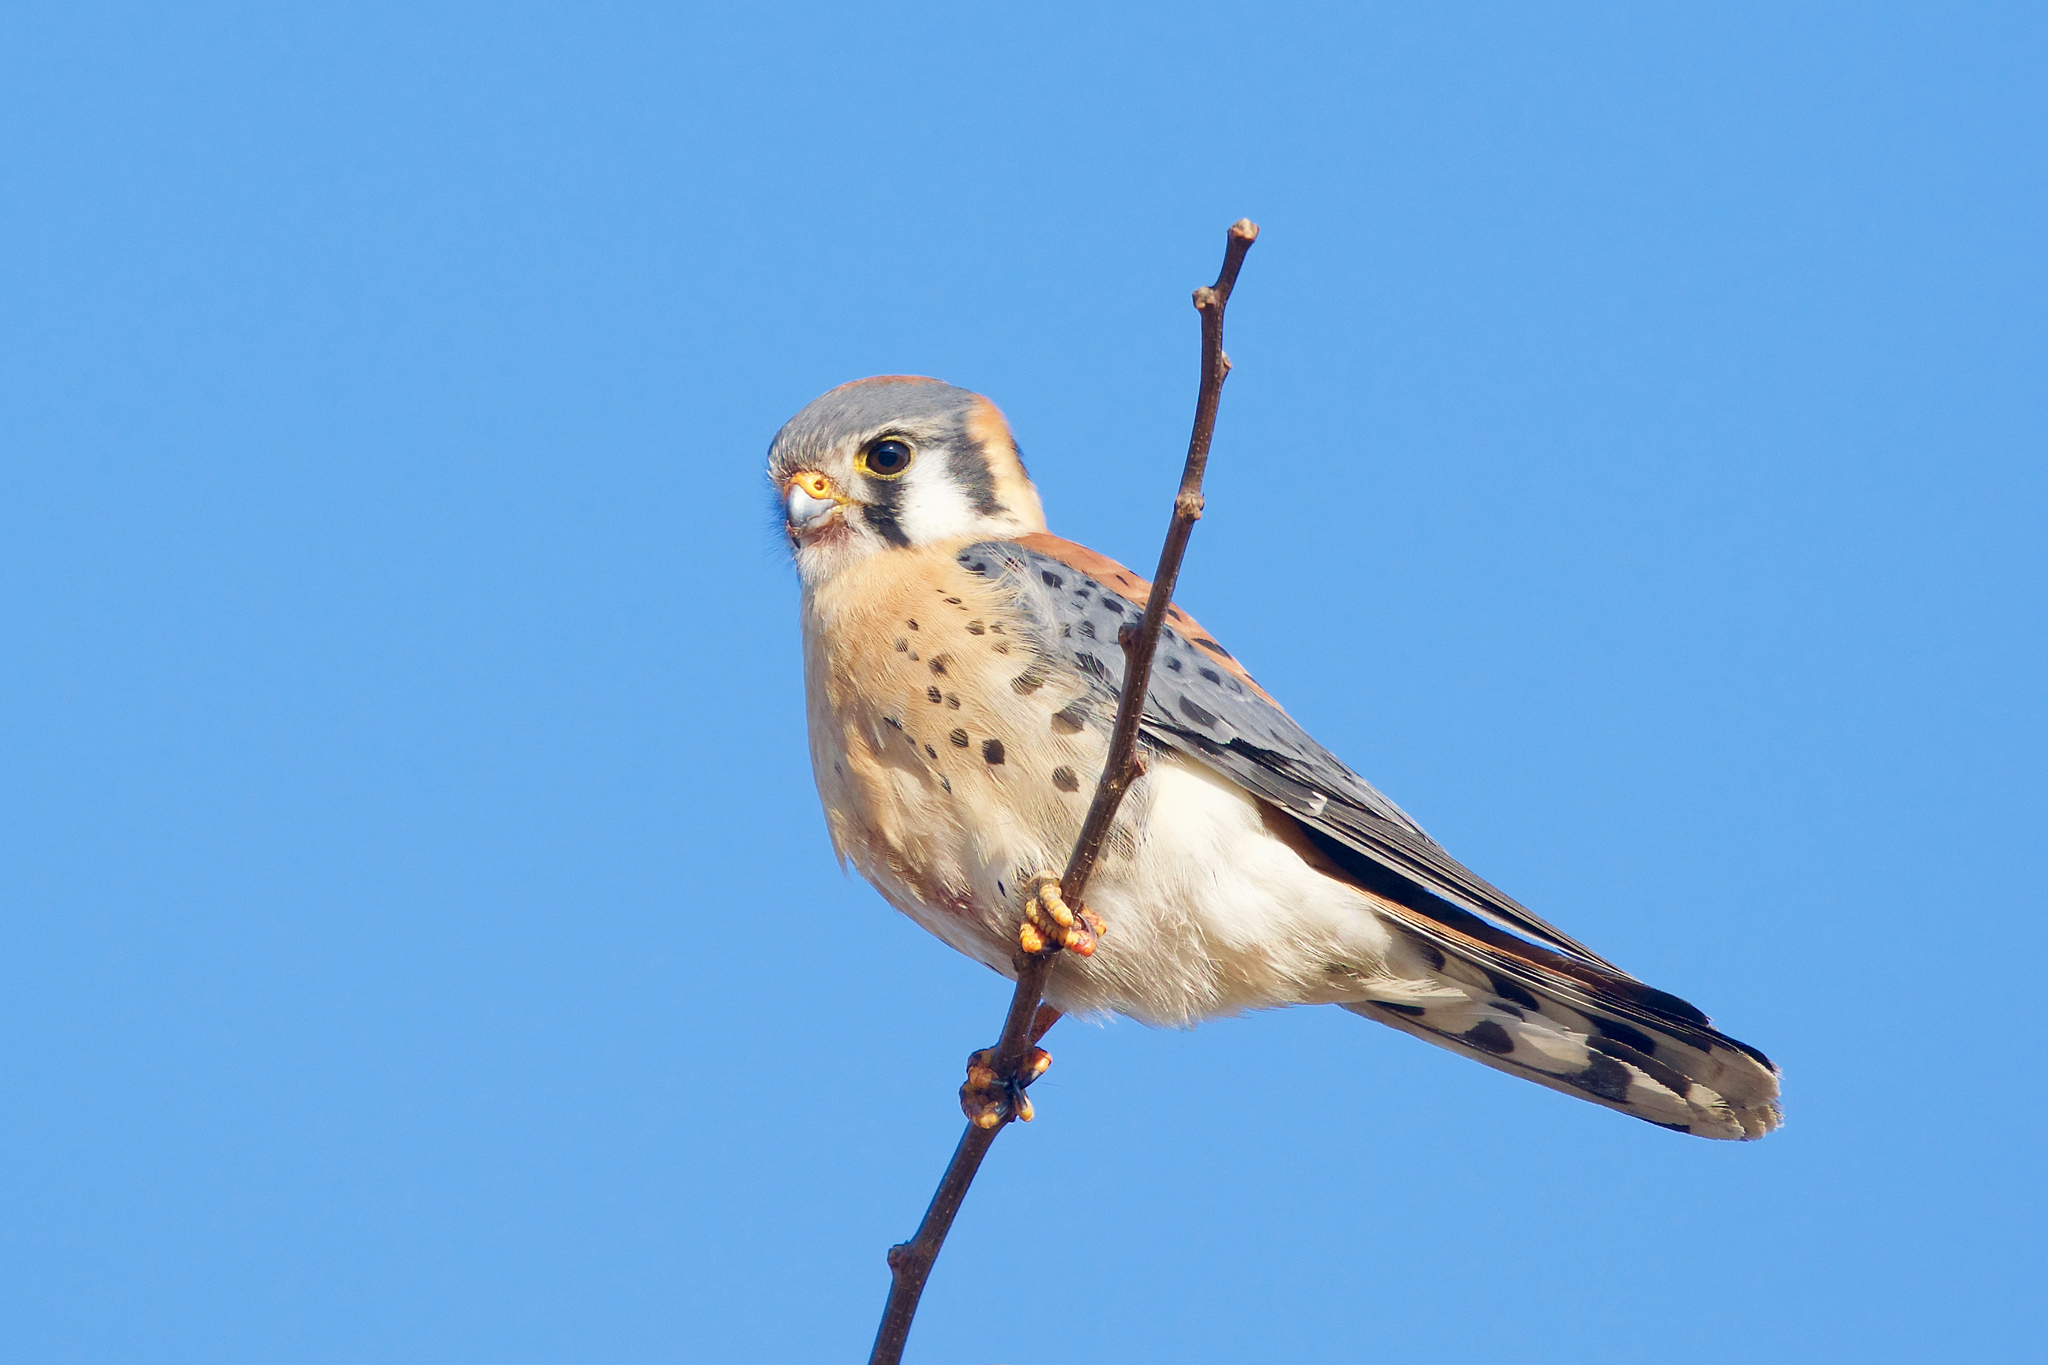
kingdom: Animalia
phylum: Chordata
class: Aves
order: Falconiformes
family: Falconidae
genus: Falco
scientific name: Falco sparverius
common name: American kestrel
